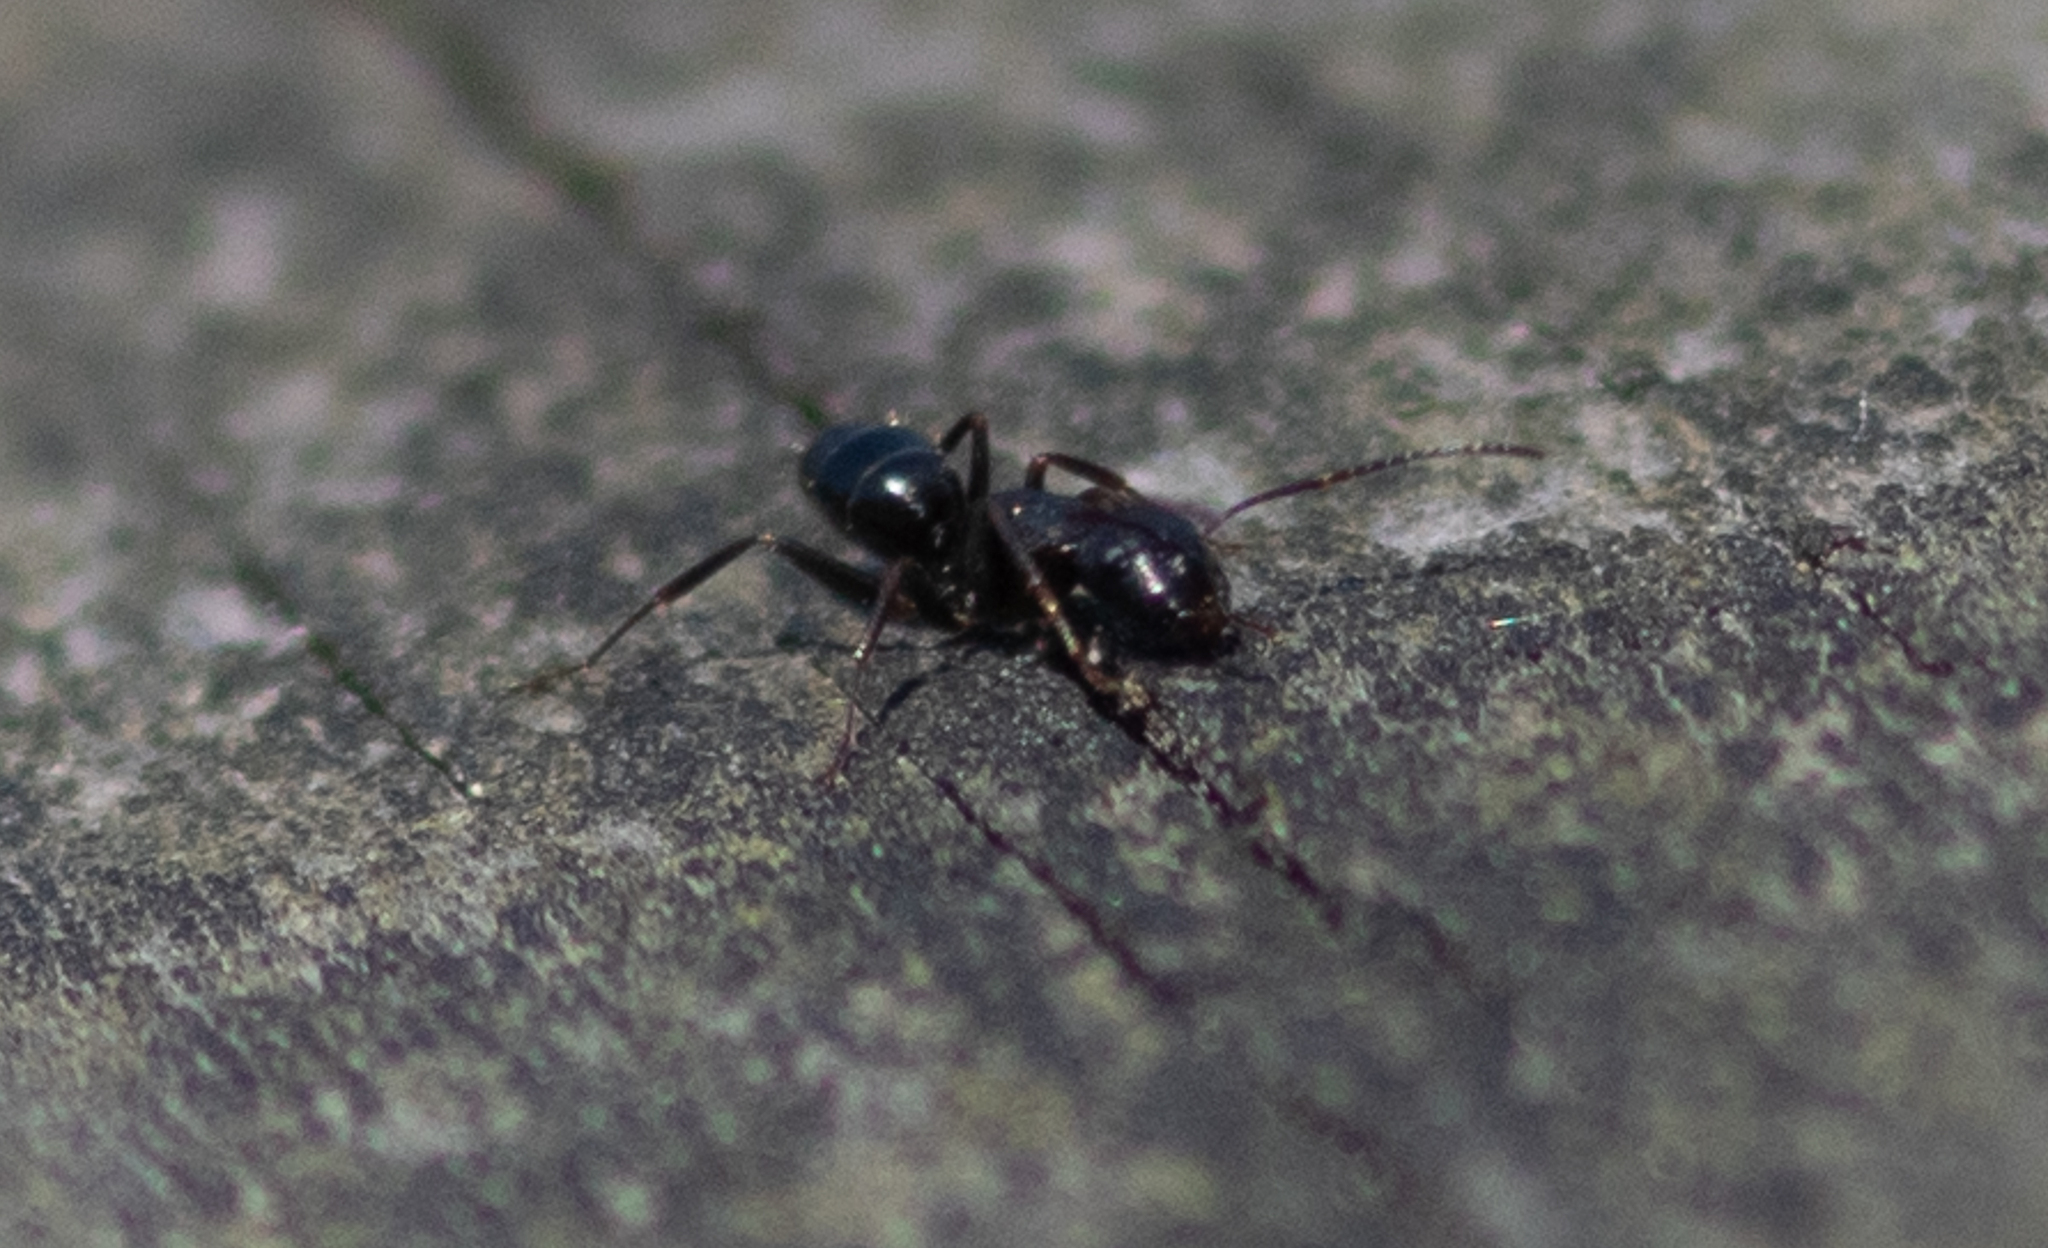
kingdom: Animalia
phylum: Arthropoda
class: Insecta
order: Hymenoptera
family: Formicidae
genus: Camponotus
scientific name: Camponotus nearcticus
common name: Smaller carpenter ant
